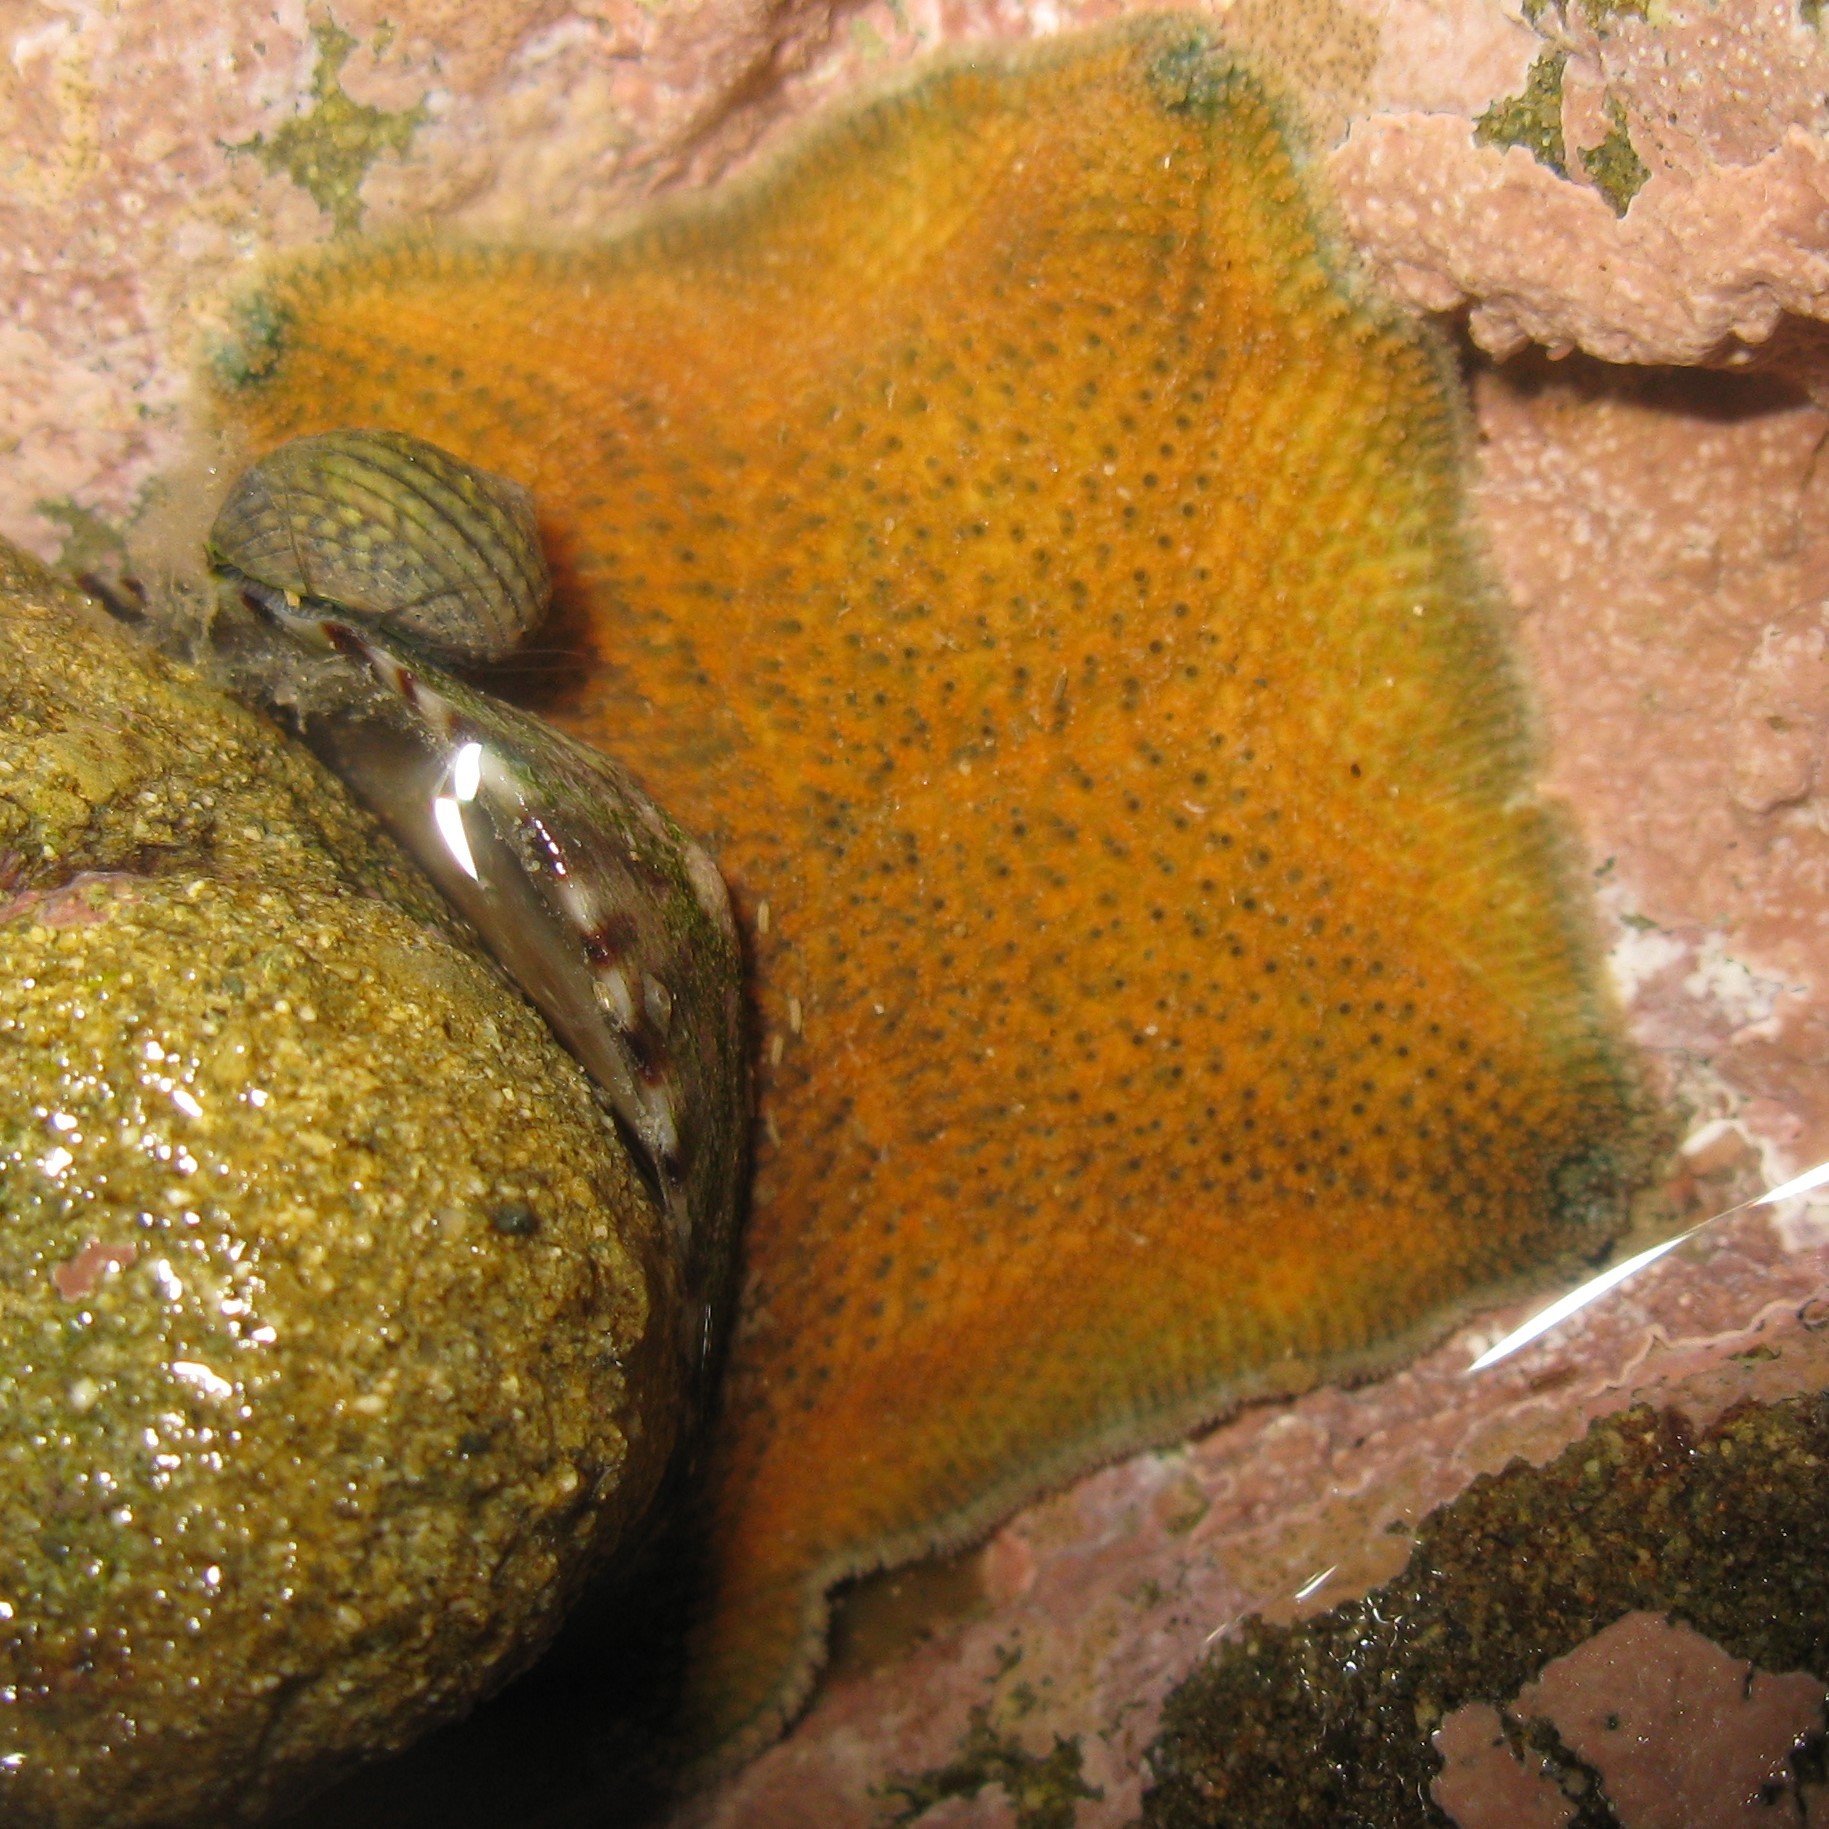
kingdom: Animalia
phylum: Echinodermata
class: Asteroidea
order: Valvatida
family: Asterinidae
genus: Patiriella
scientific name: Patiriella regularis
